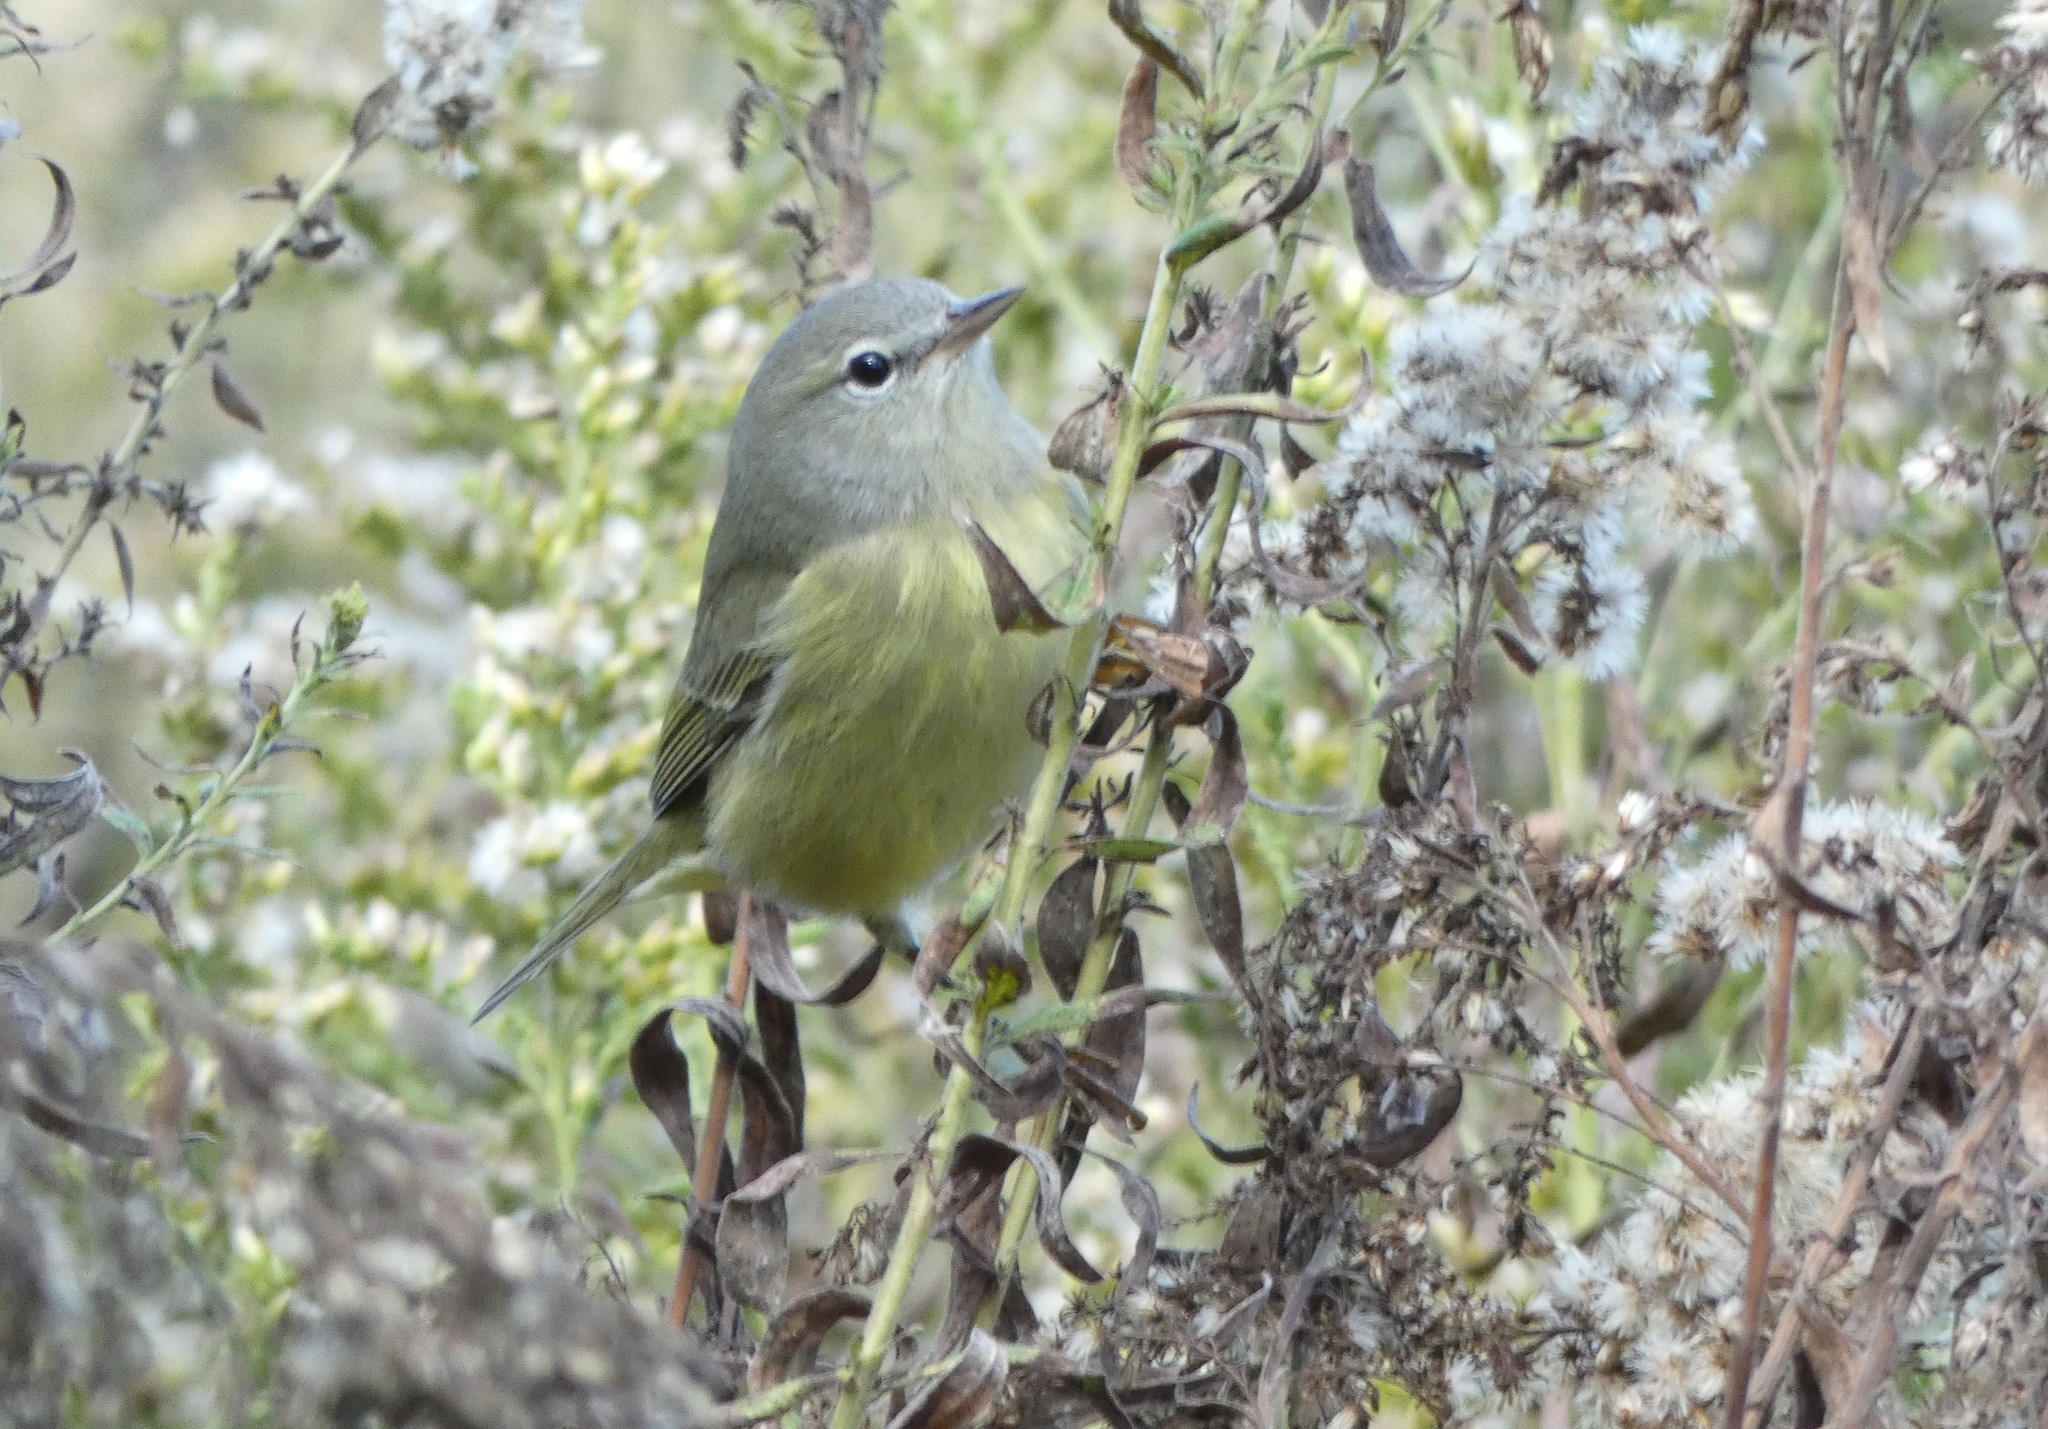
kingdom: Animalia
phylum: Chordata
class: Aves
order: Passeriformes
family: Parulidae
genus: Leiothlypis
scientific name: Leiothlypis celata
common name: Orange-crowned warbler
